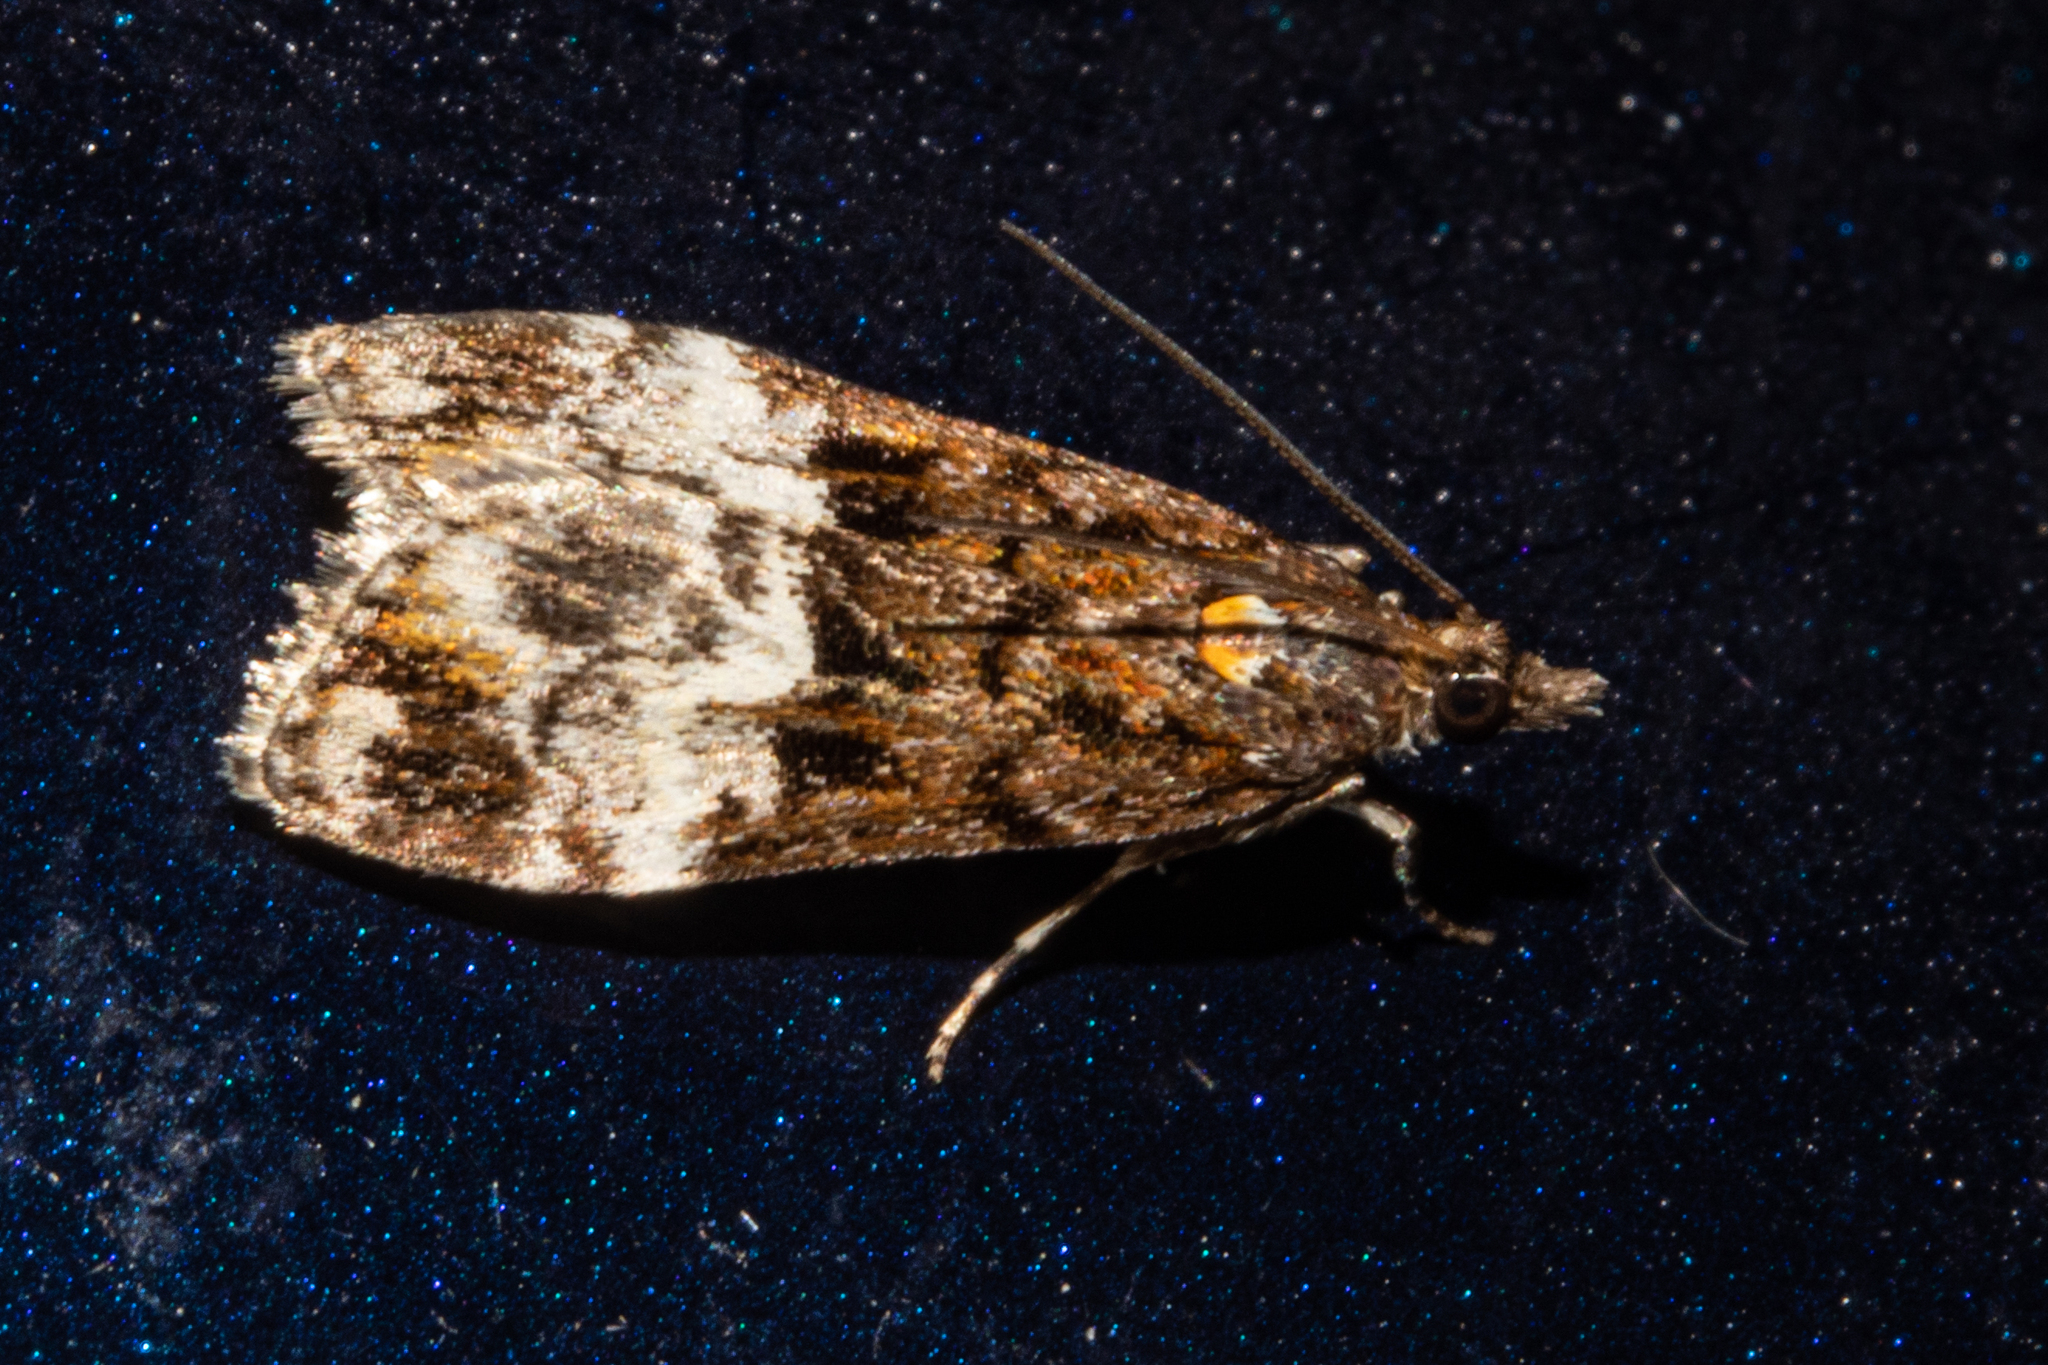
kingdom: Animalia
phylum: Arthropoda
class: Insecta
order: Lepidoptera
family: Crambidae
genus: Scoparia
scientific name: Scoparia minusculalis
